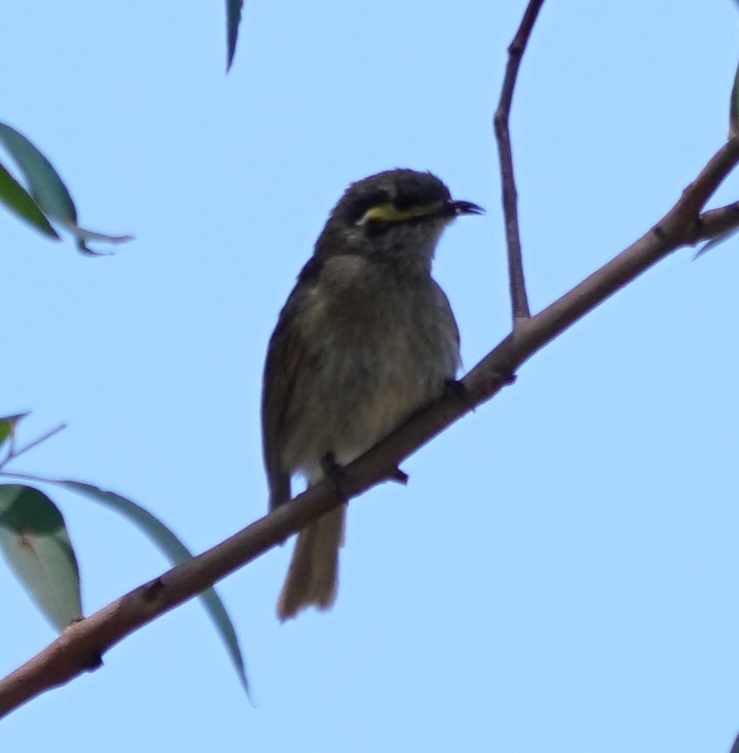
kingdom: Animalia
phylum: Chordata
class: Aves
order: Passeriformes
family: Meliphagidae
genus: Caligavis
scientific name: Caligavis chrysops
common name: Yellow-faced honeyeater
